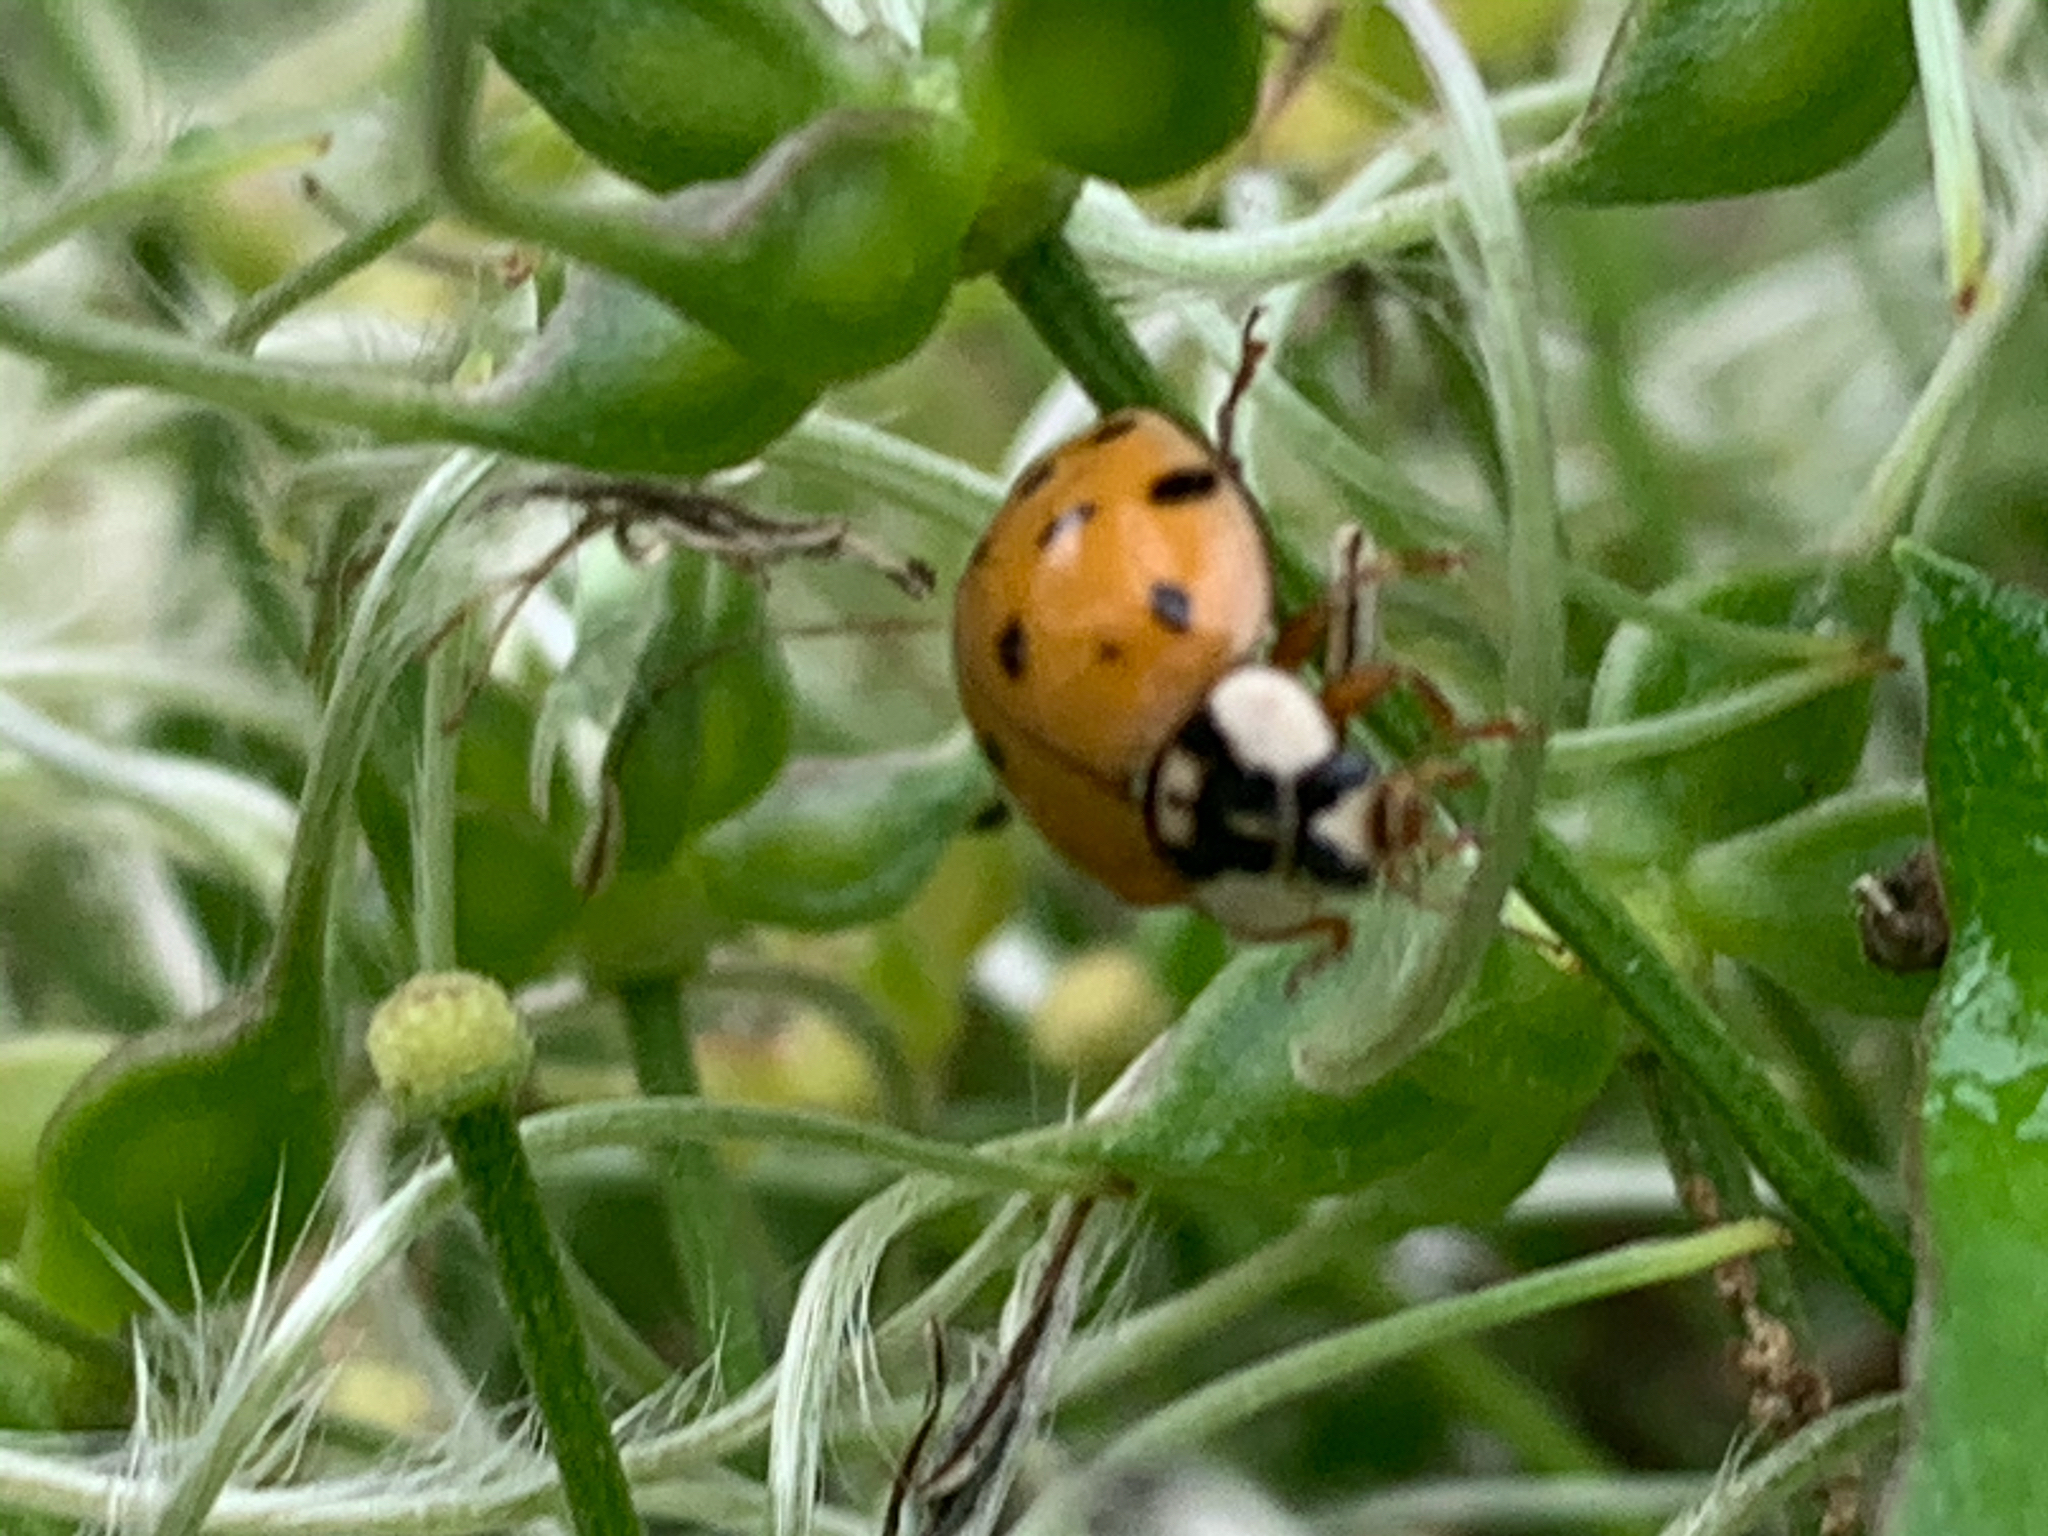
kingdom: Animalia
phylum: Arthropoda
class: Insecta
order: Coleoptera
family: Coccinellidae
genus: Harmonia
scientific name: Harmonia axyridis
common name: Harlequin ladybird
